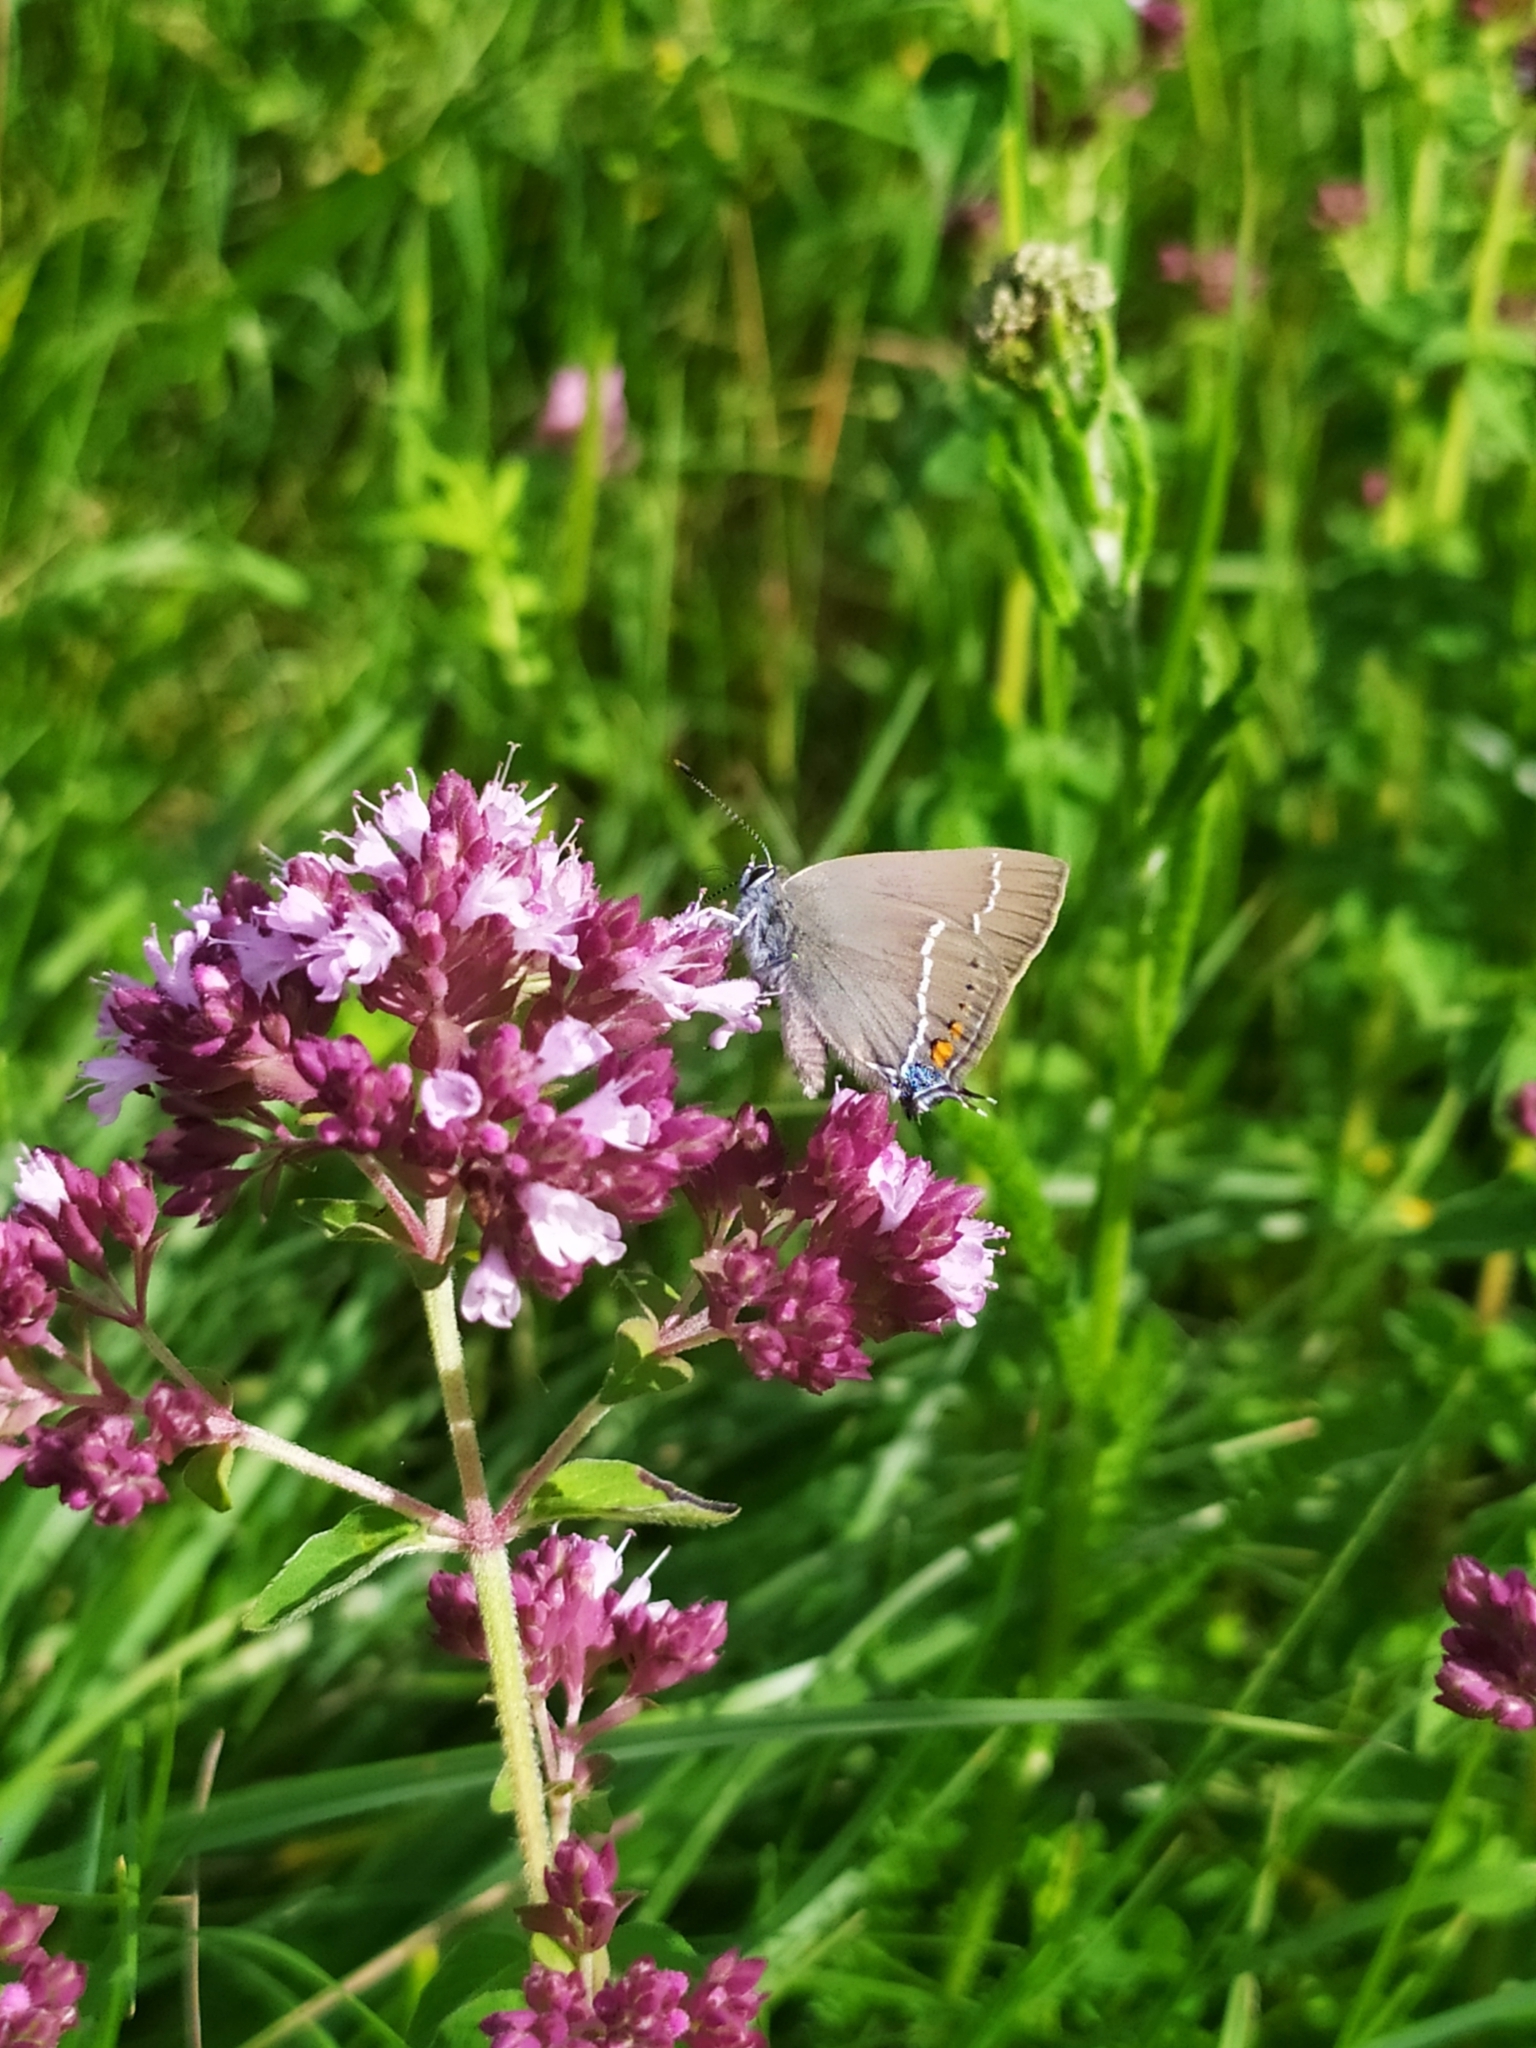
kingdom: Animalia
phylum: Arthropoda
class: Insecta
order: Lepidoptera
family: Lycaenidae
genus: Tuttiola
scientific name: Tuttiola spini
